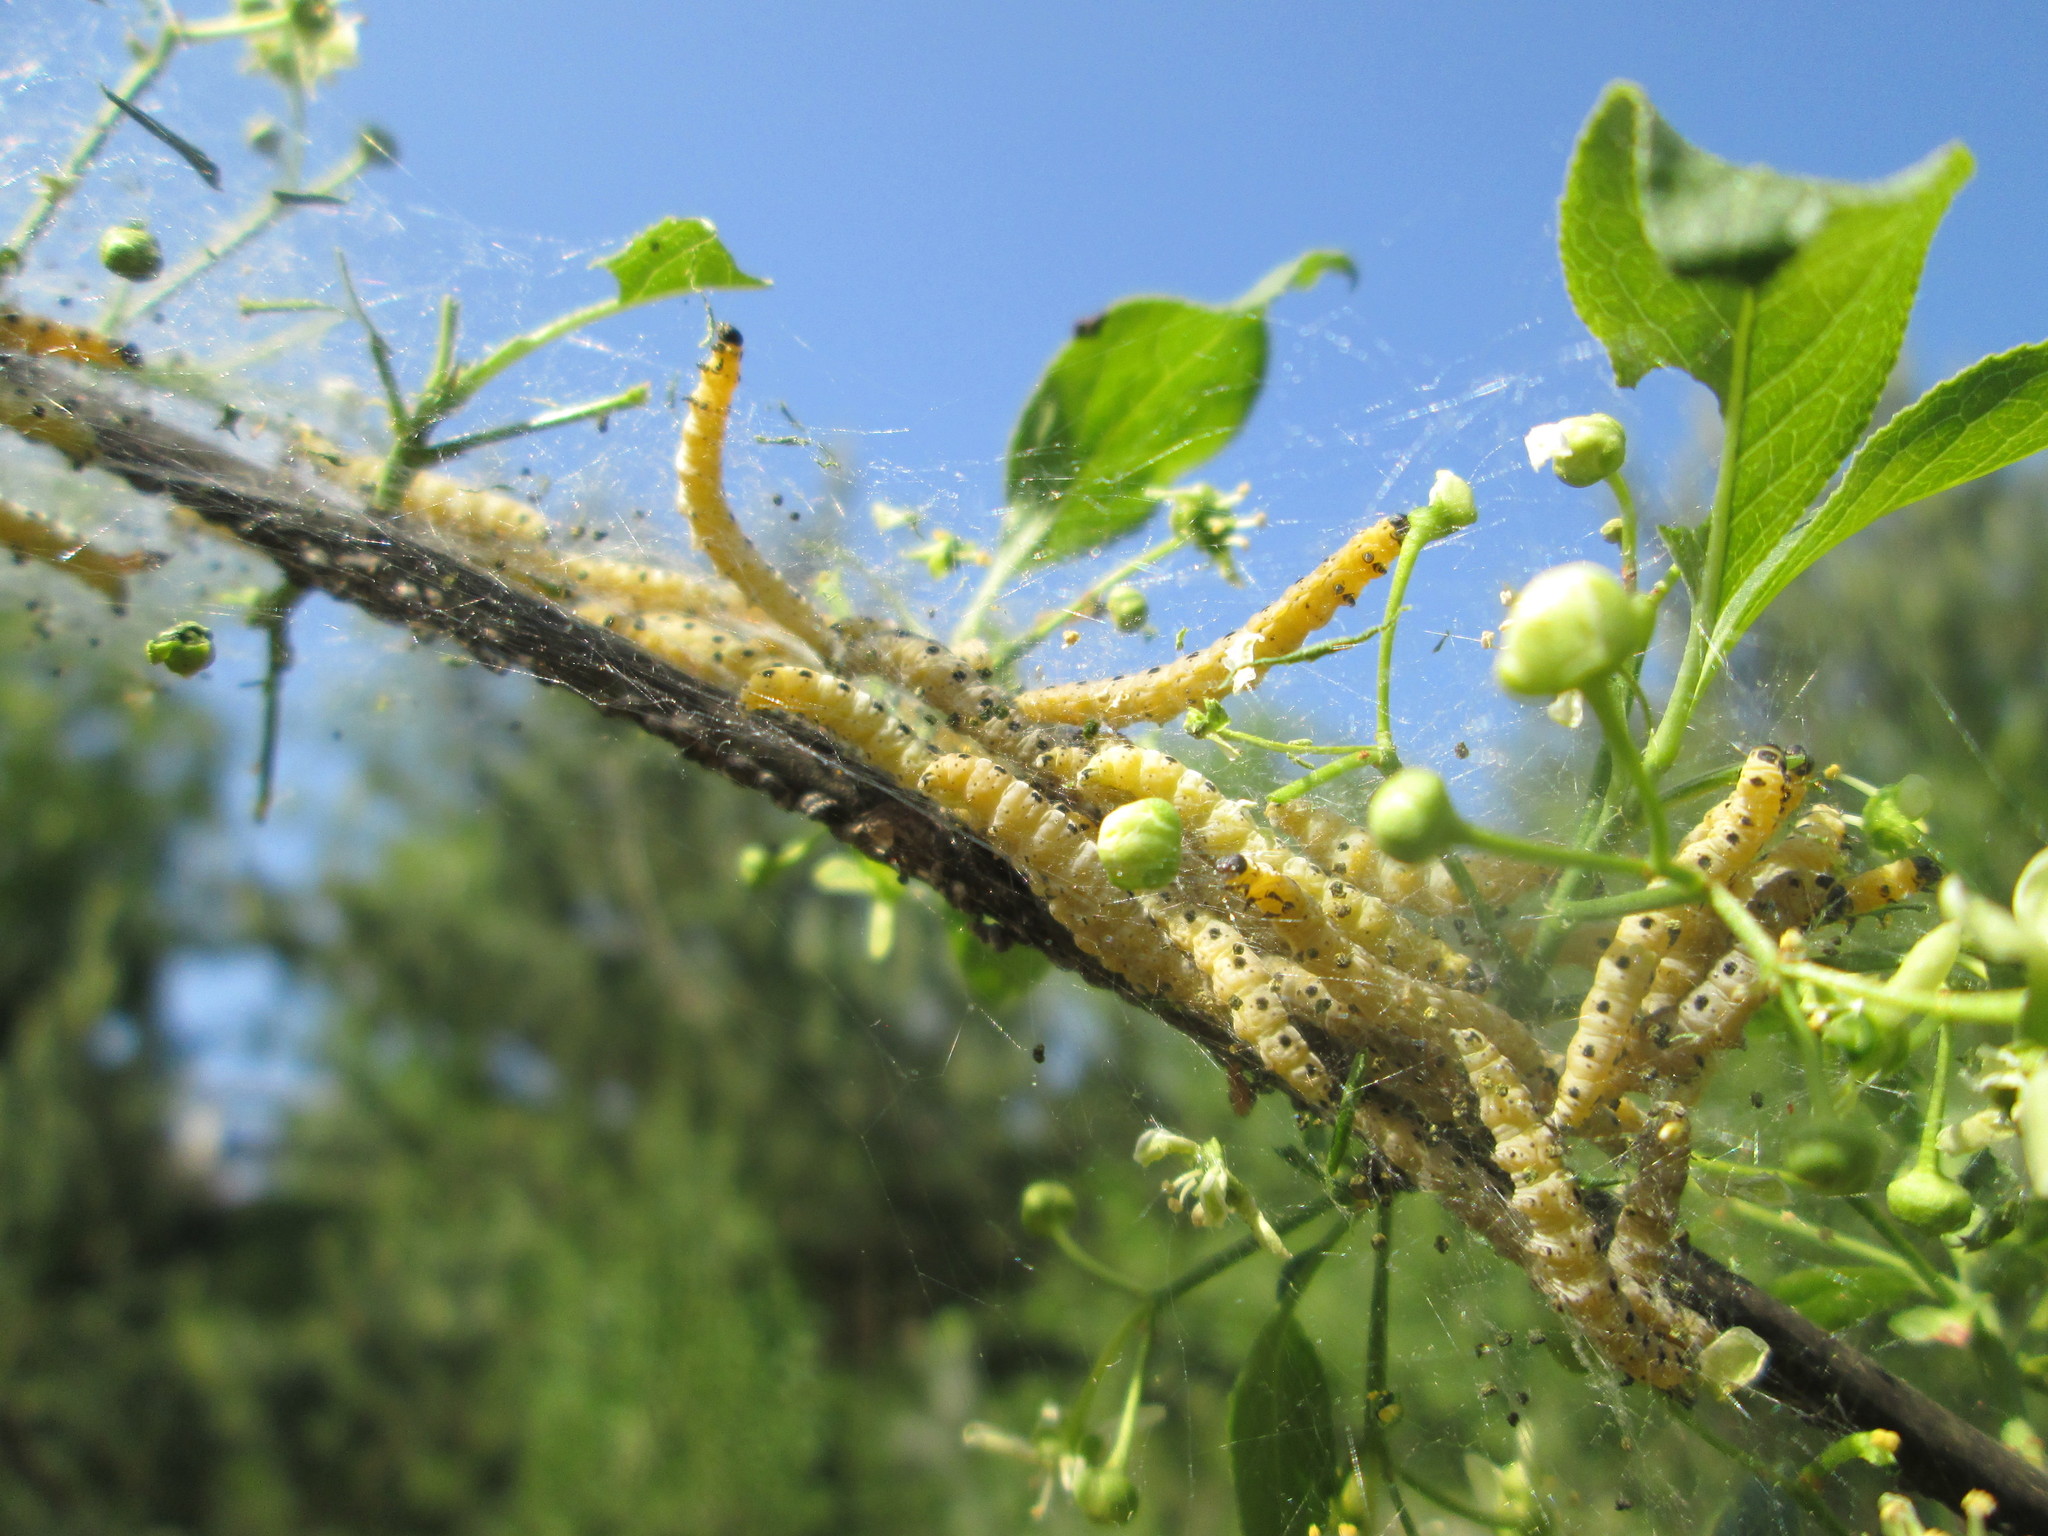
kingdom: Animalia
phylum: Arthropoda
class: Insecta
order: Lepidoptera
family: Yponomeutidae
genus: Yponomeuta
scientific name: Yponomeuta cagnagellus
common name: Spindle ermine
